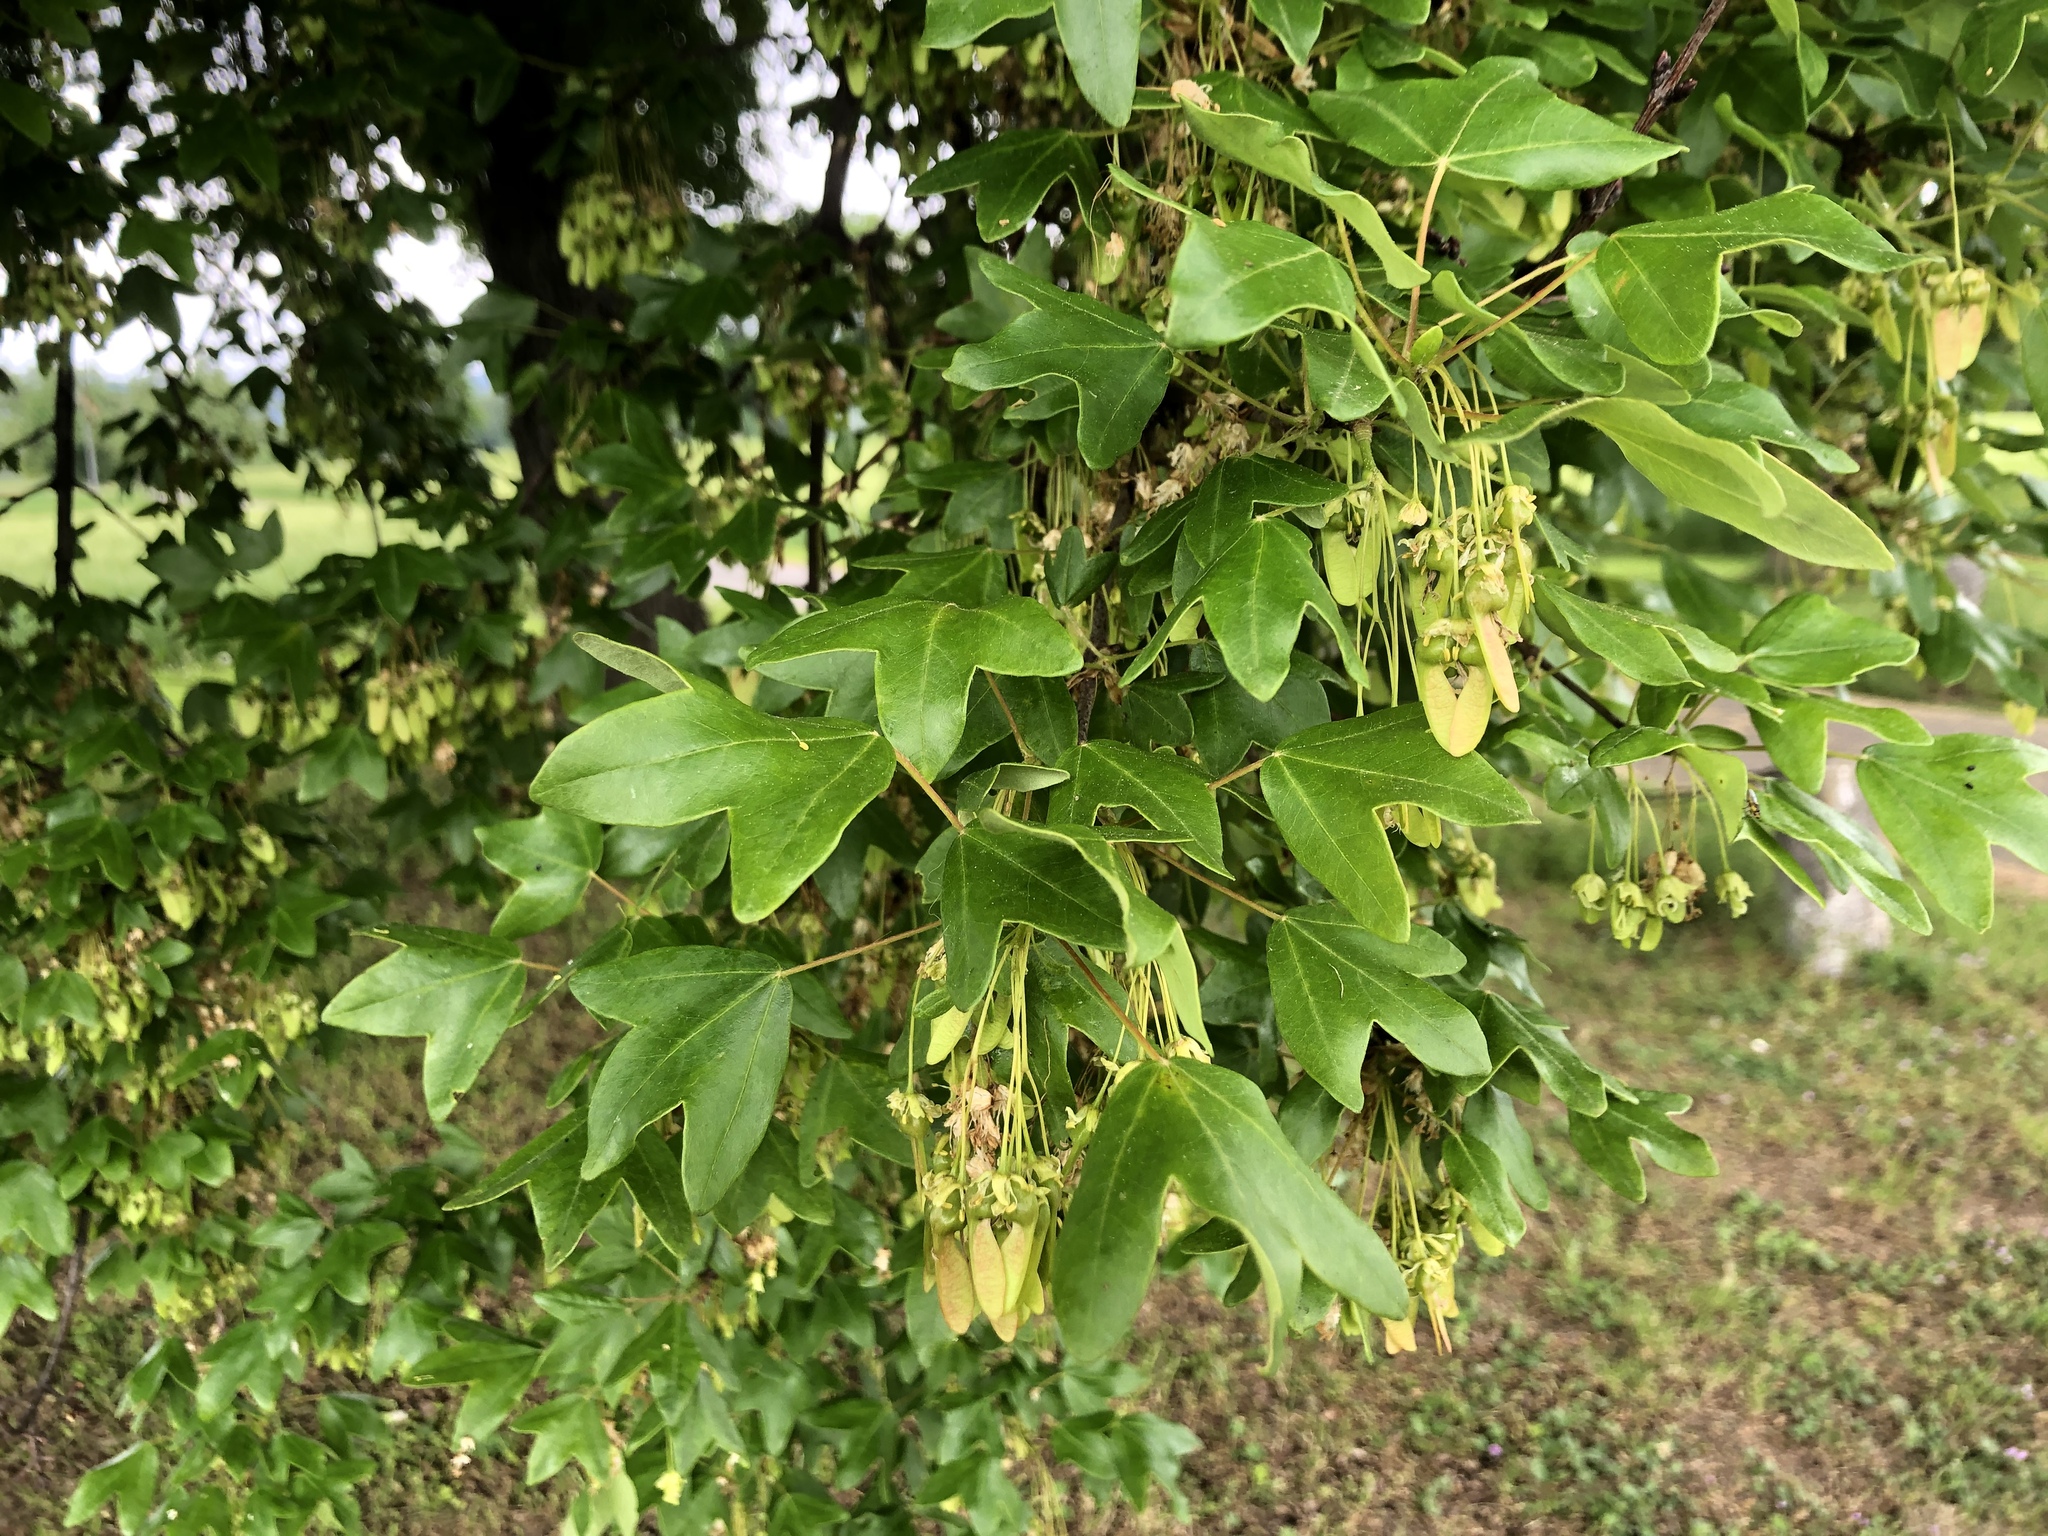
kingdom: Plantae
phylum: Tracheophyta
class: Magnoliopsida
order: Sapindales
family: Sapindaceae
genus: Acer
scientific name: Acer monspessulanum
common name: Montpellier maple
